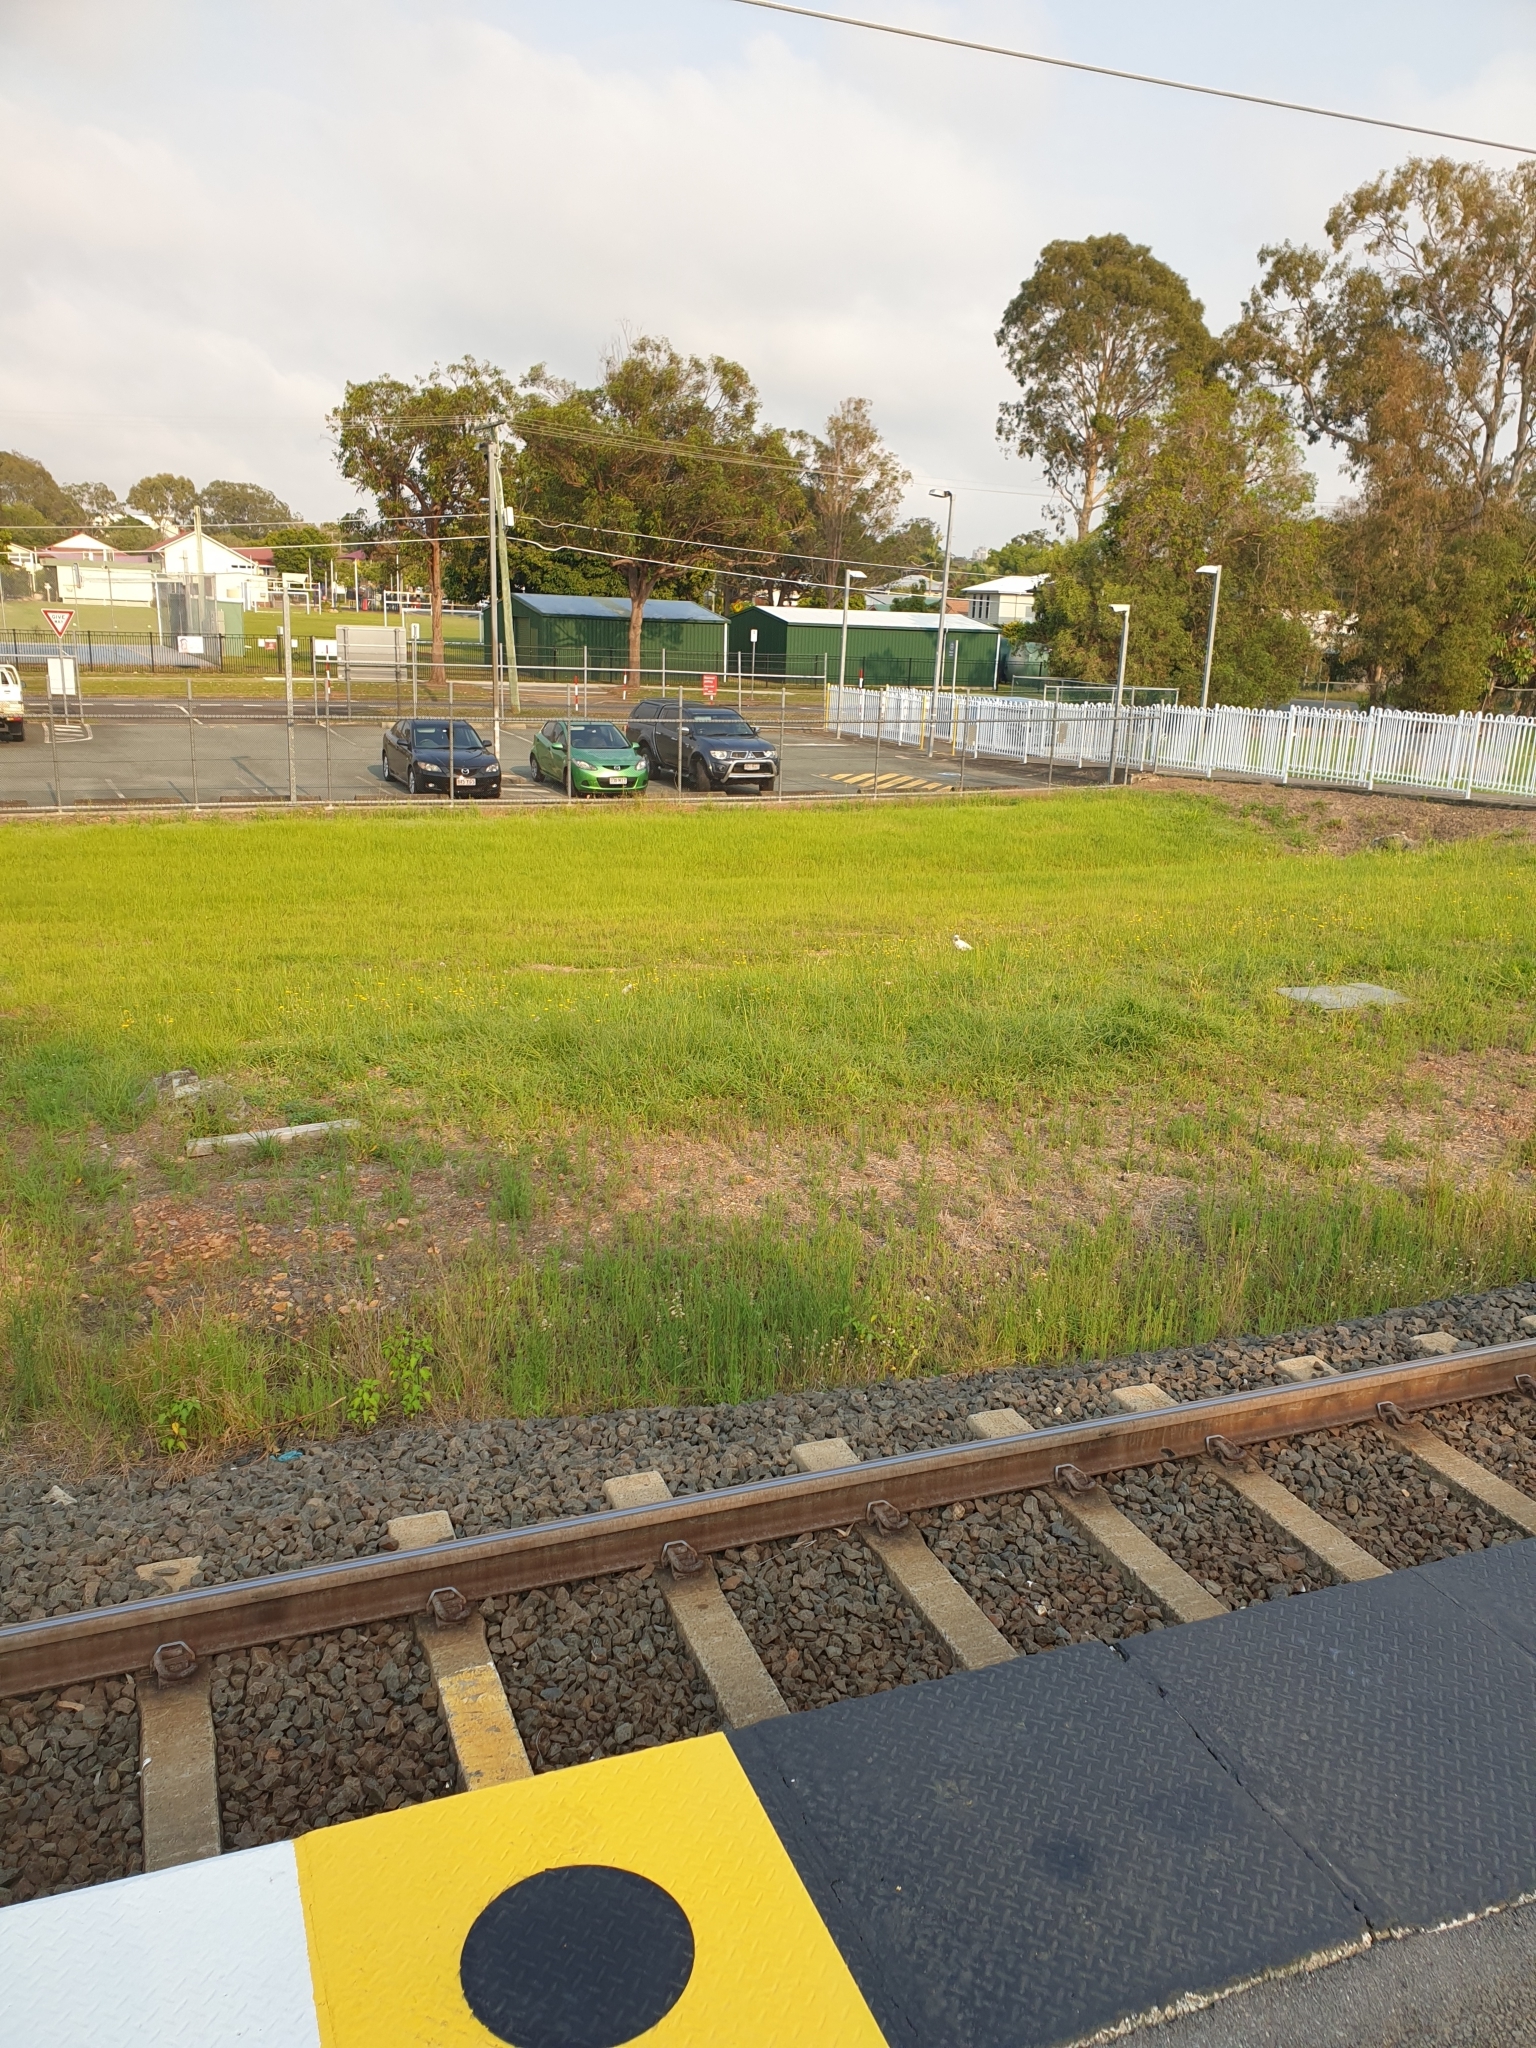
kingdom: Animalia
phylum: Chordata
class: Aves
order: Psittaciformes
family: Psittacidae
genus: Cacatua
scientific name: Cacatua sanguinea
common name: Little corella
